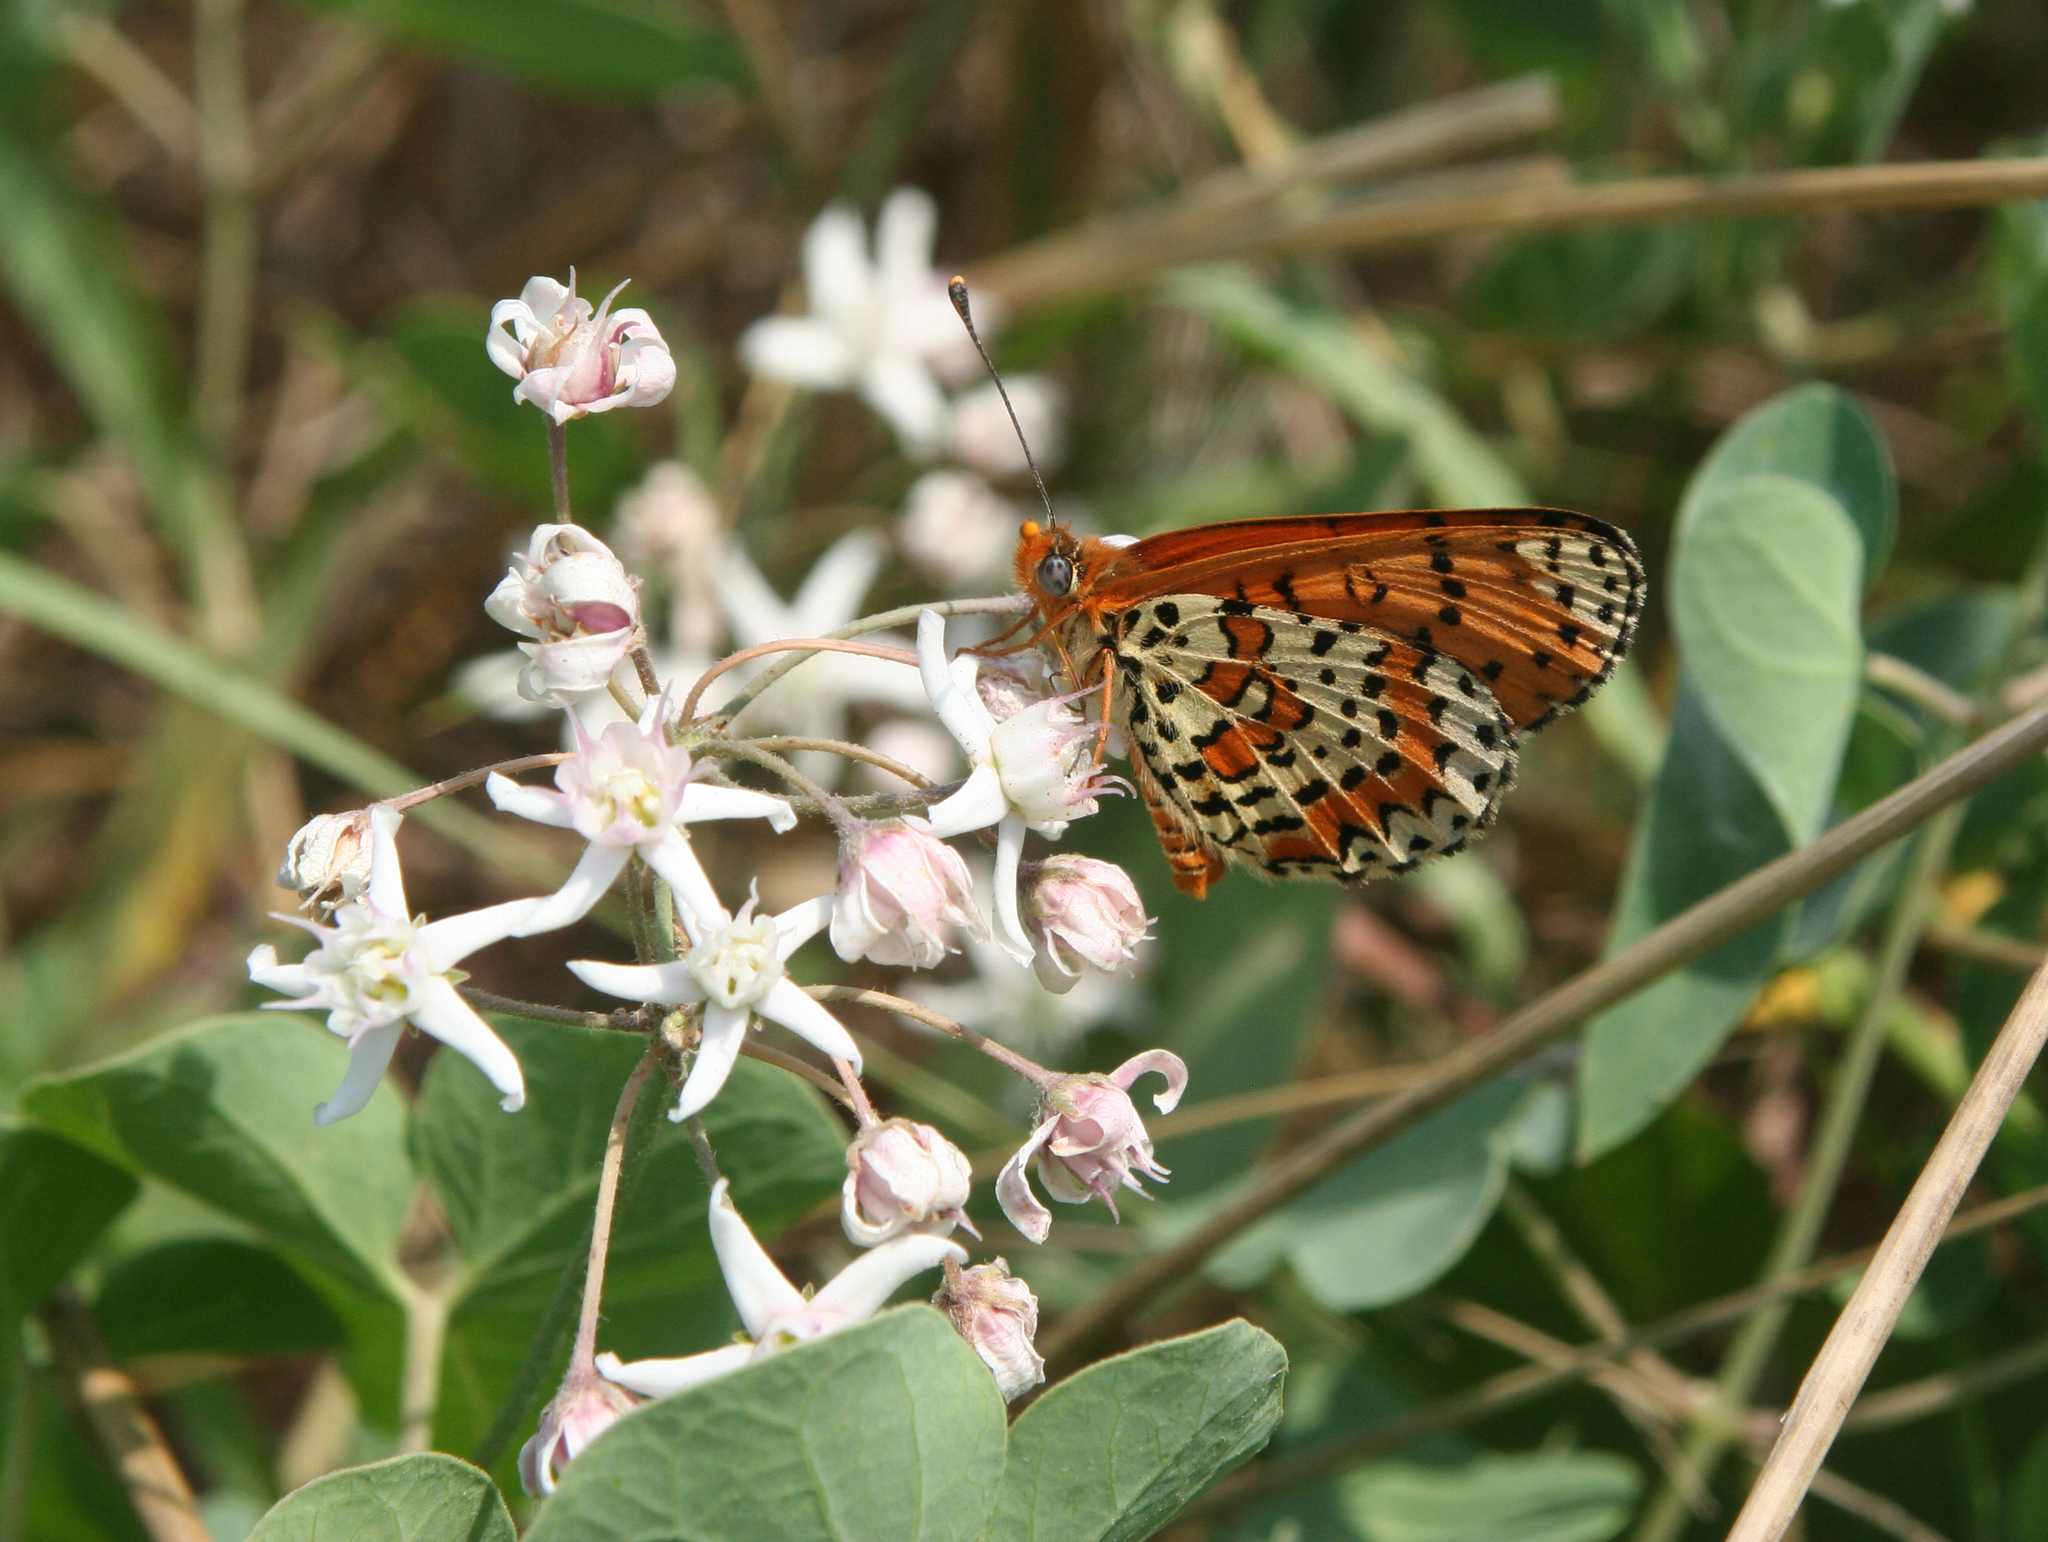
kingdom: Animalia
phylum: Arthropoda
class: Insecta
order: Lepidoptera
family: Nymphalidae
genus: Melitaea
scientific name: Melitaea didyma
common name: Spotted fritillary
